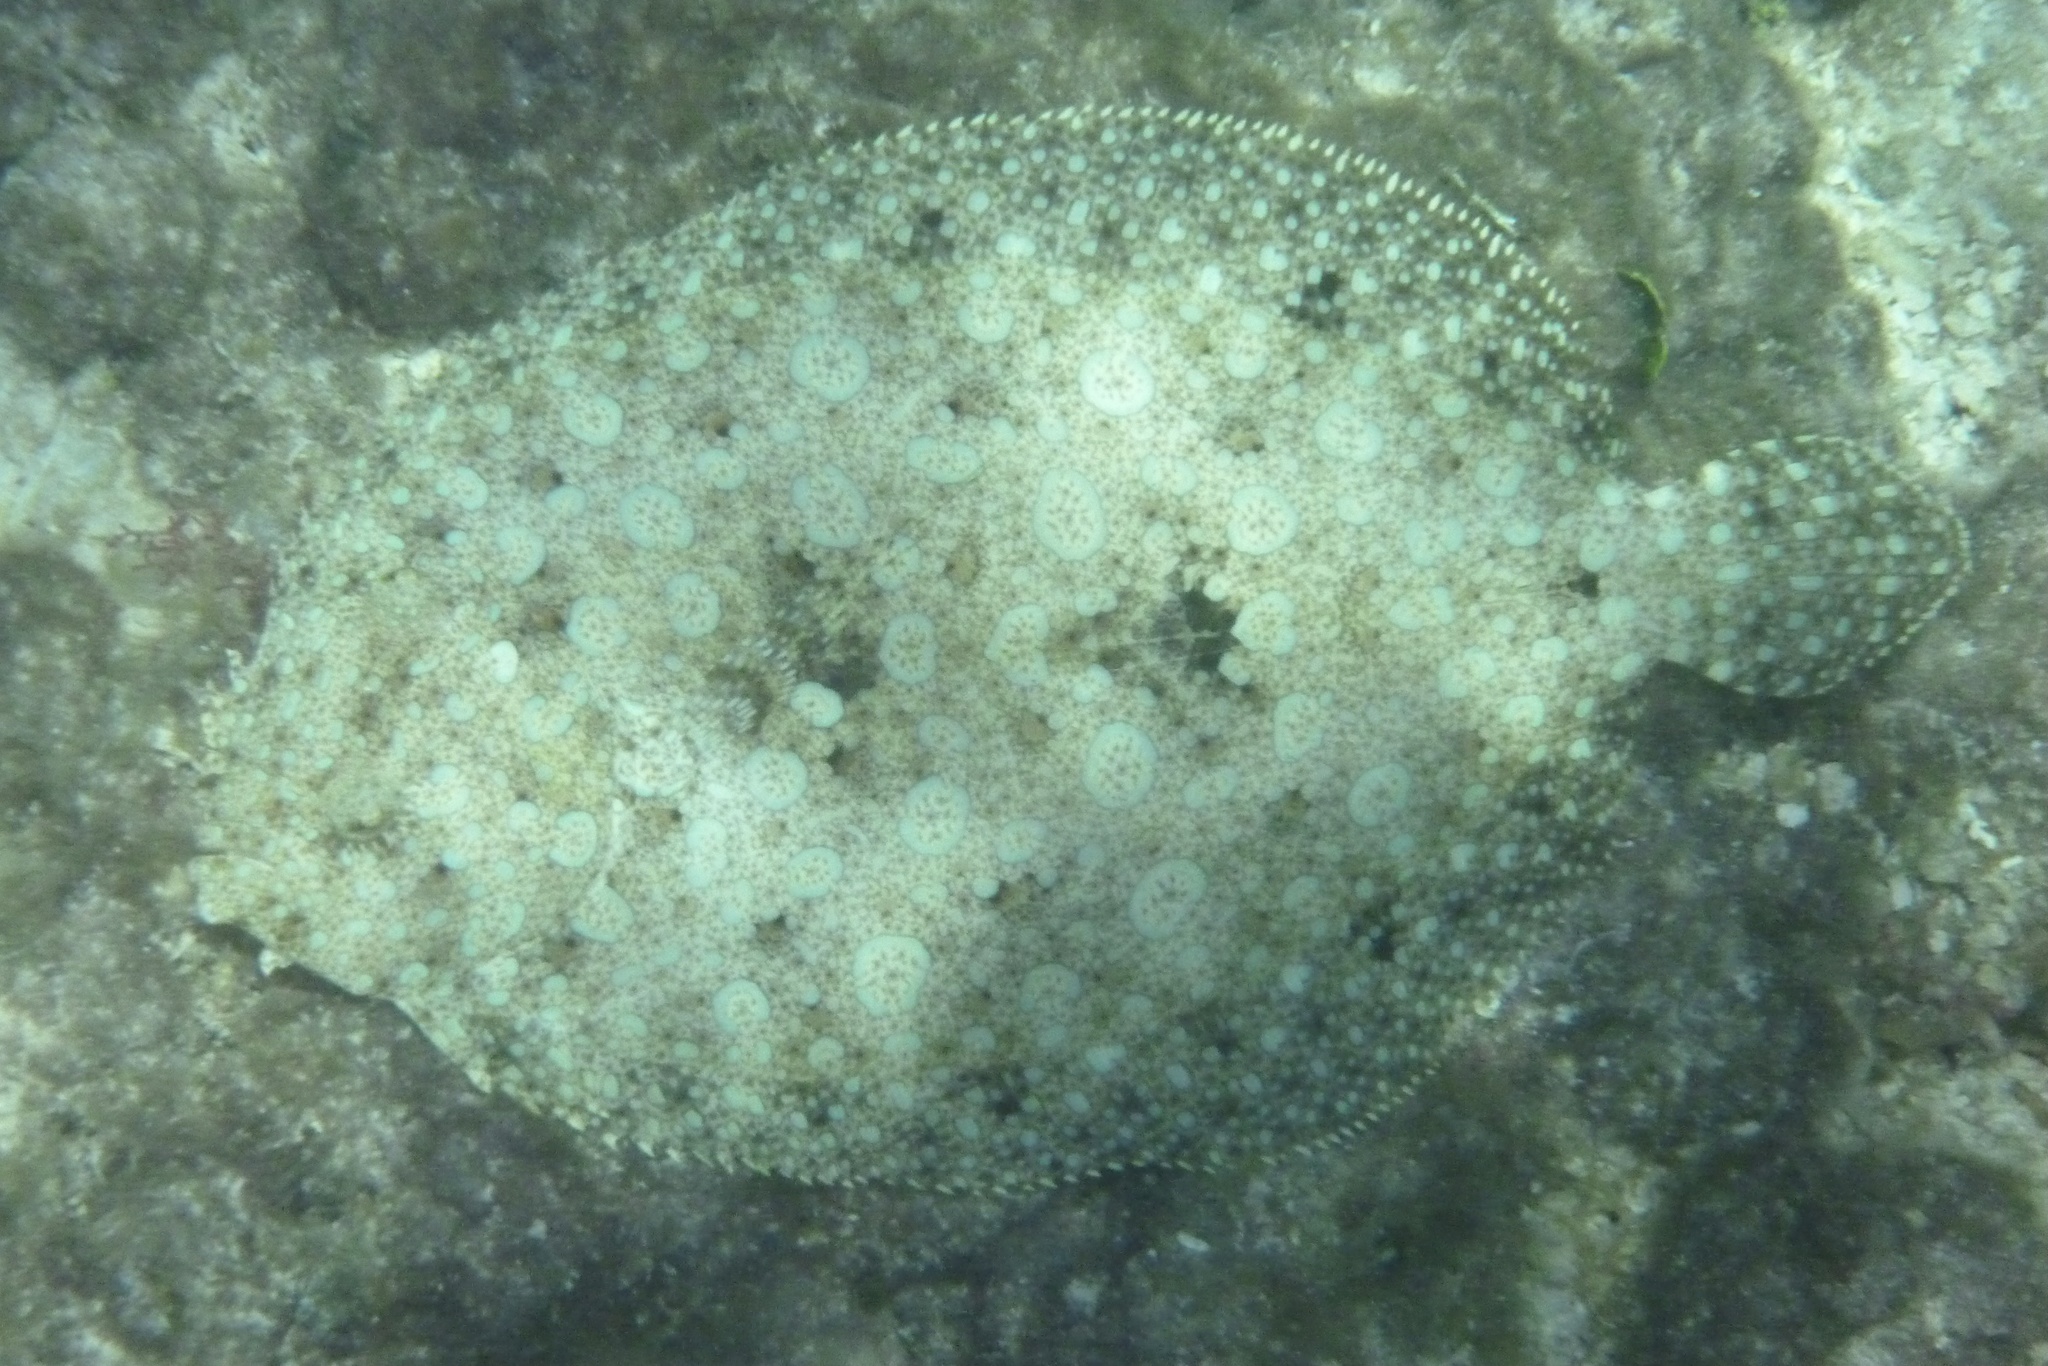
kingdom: Animalia
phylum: Chordata
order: Pleuronectiformes
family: Bothidae
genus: Bothus
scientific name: Bothus lunatus
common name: Peacock flounder
